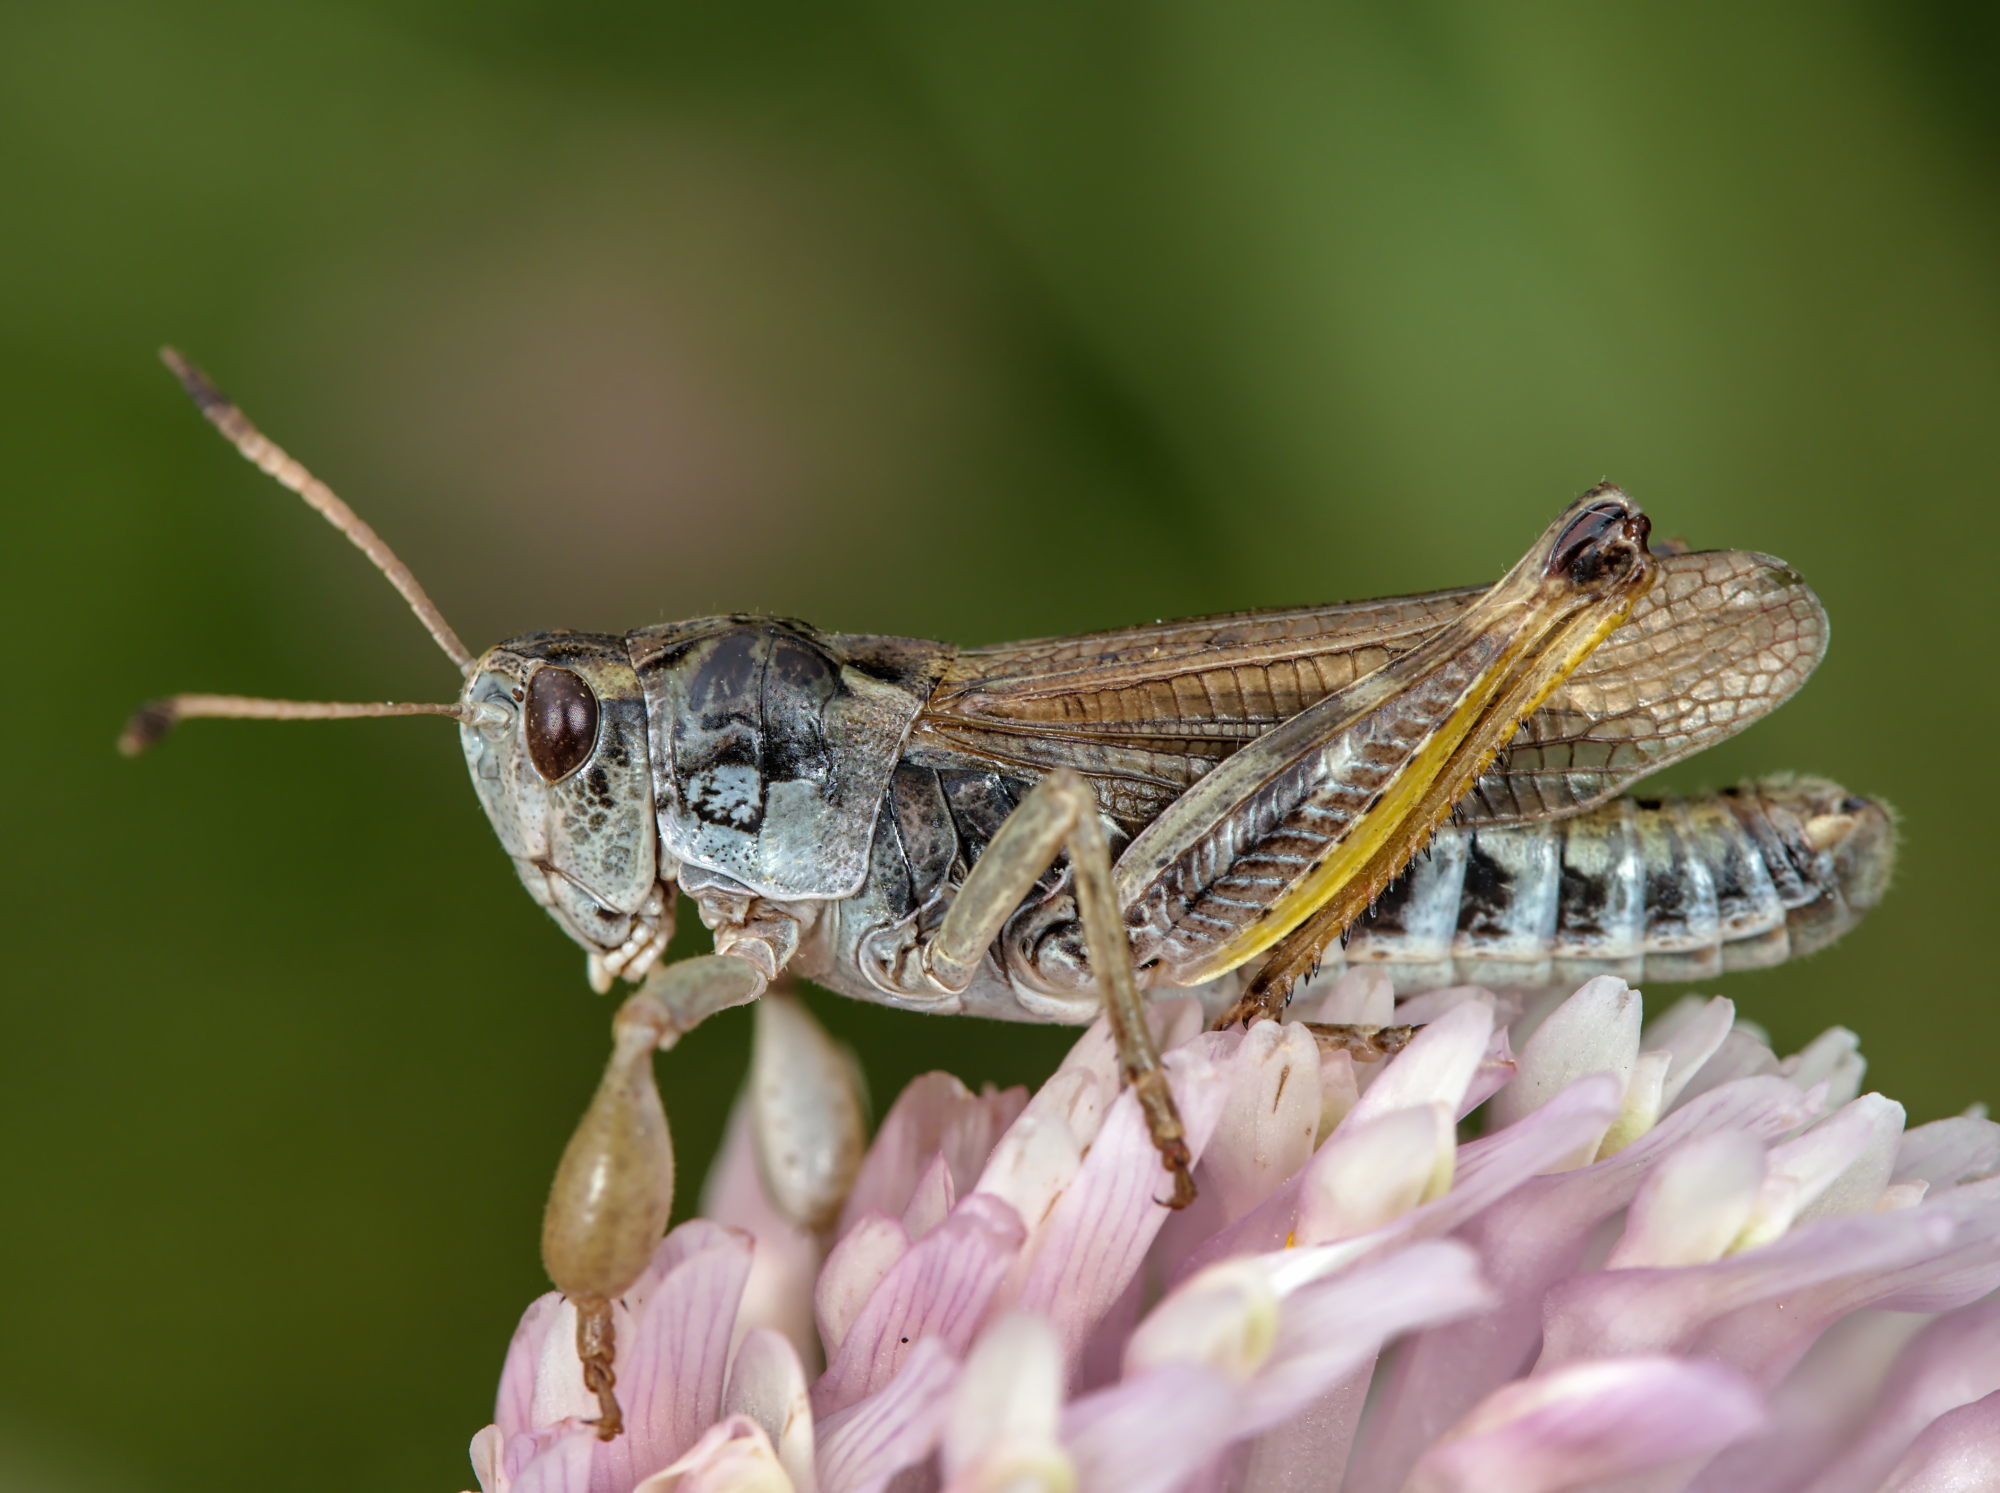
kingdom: Animalia
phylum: Arthropoda
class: Insecta
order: Orthoptera
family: Acrididae
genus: Gomphocerus
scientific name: Gomphocerus sibiricus
